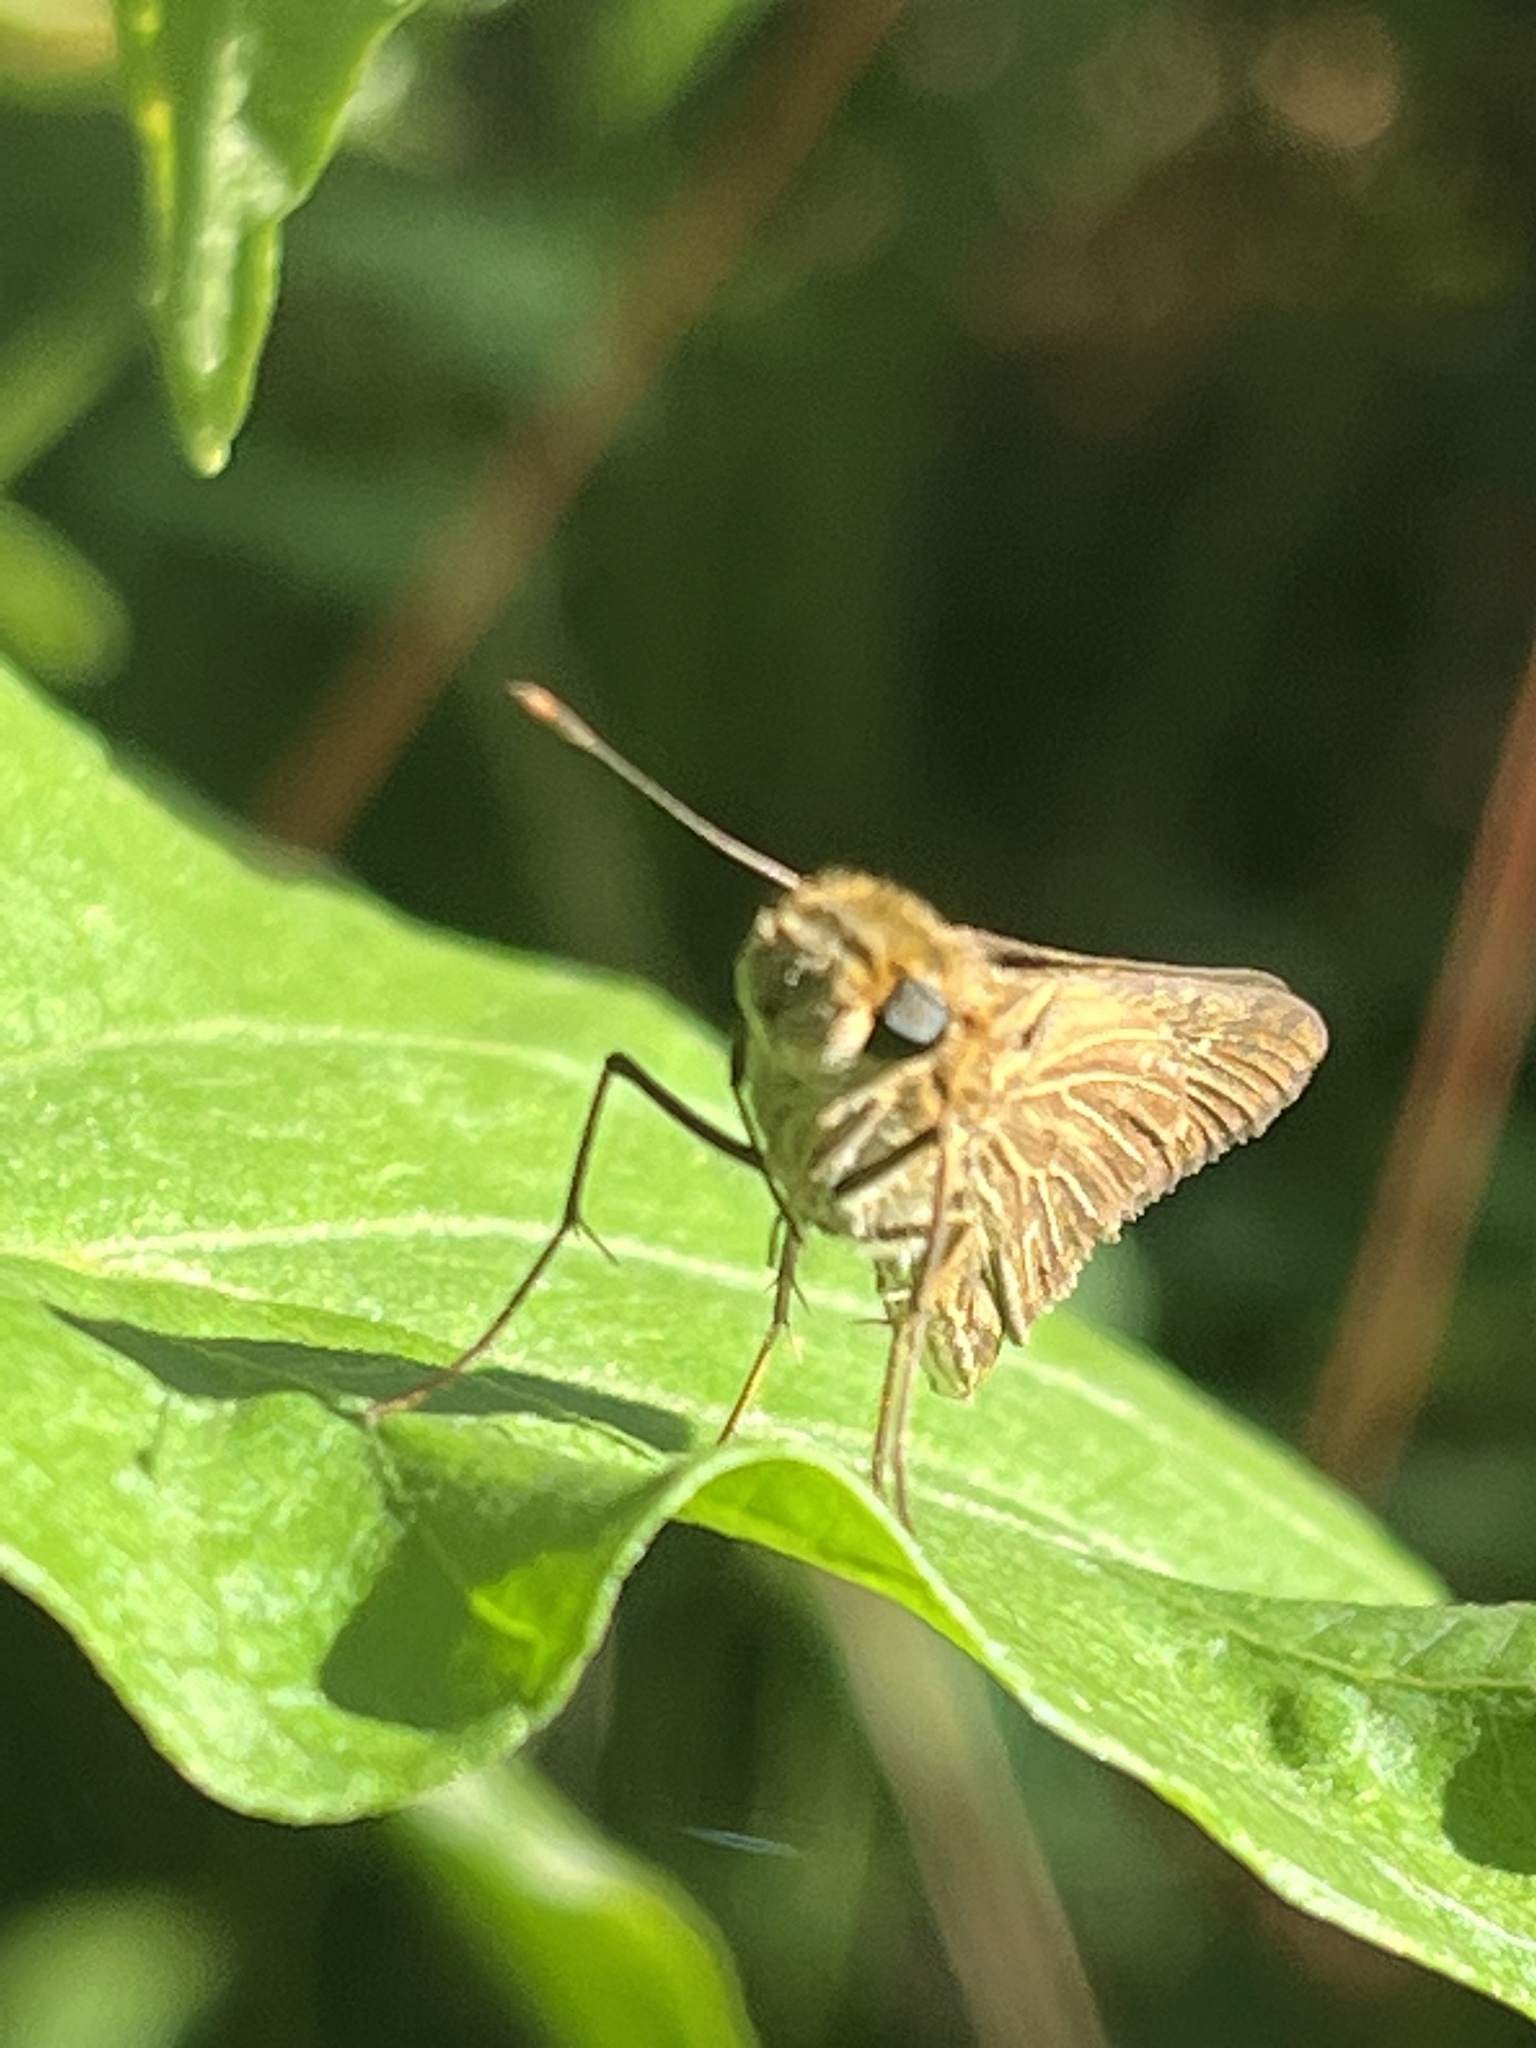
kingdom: Animalia
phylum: Arthropoda
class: Insecta
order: Lepidoptera
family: Hesperiidae
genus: Panoquina
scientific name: Panoquina ocola
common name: Ocola skipper
